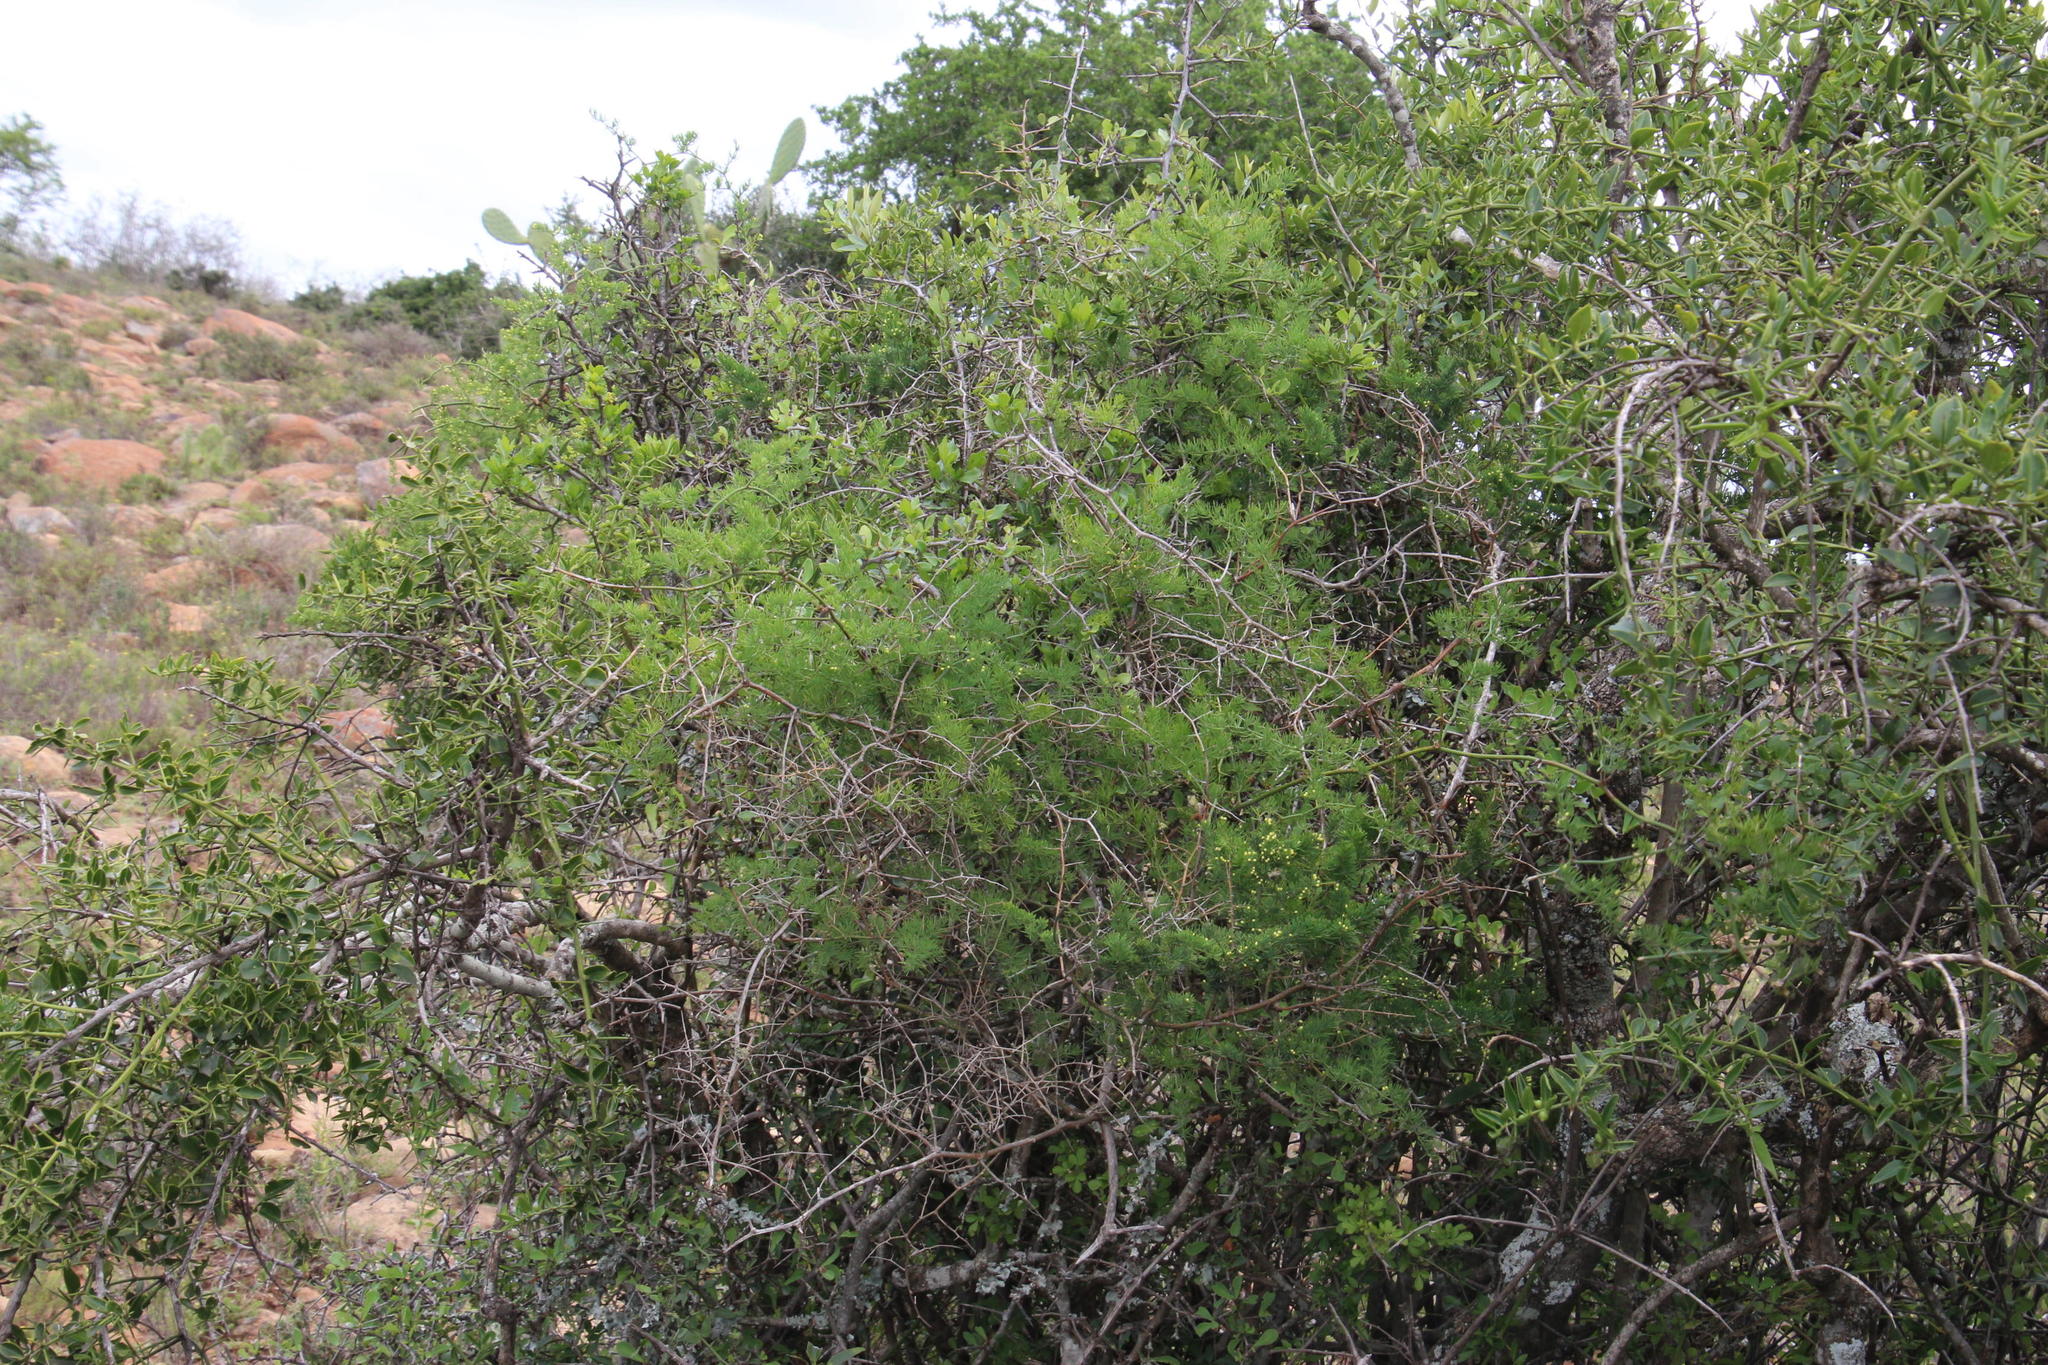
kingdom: Plantae
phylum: Tracheophyta
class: Liliopsida
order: Asparagales
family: Asparagaceae
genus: Asparagus
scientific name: Asparagus africanus
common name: Asparagus-fern
